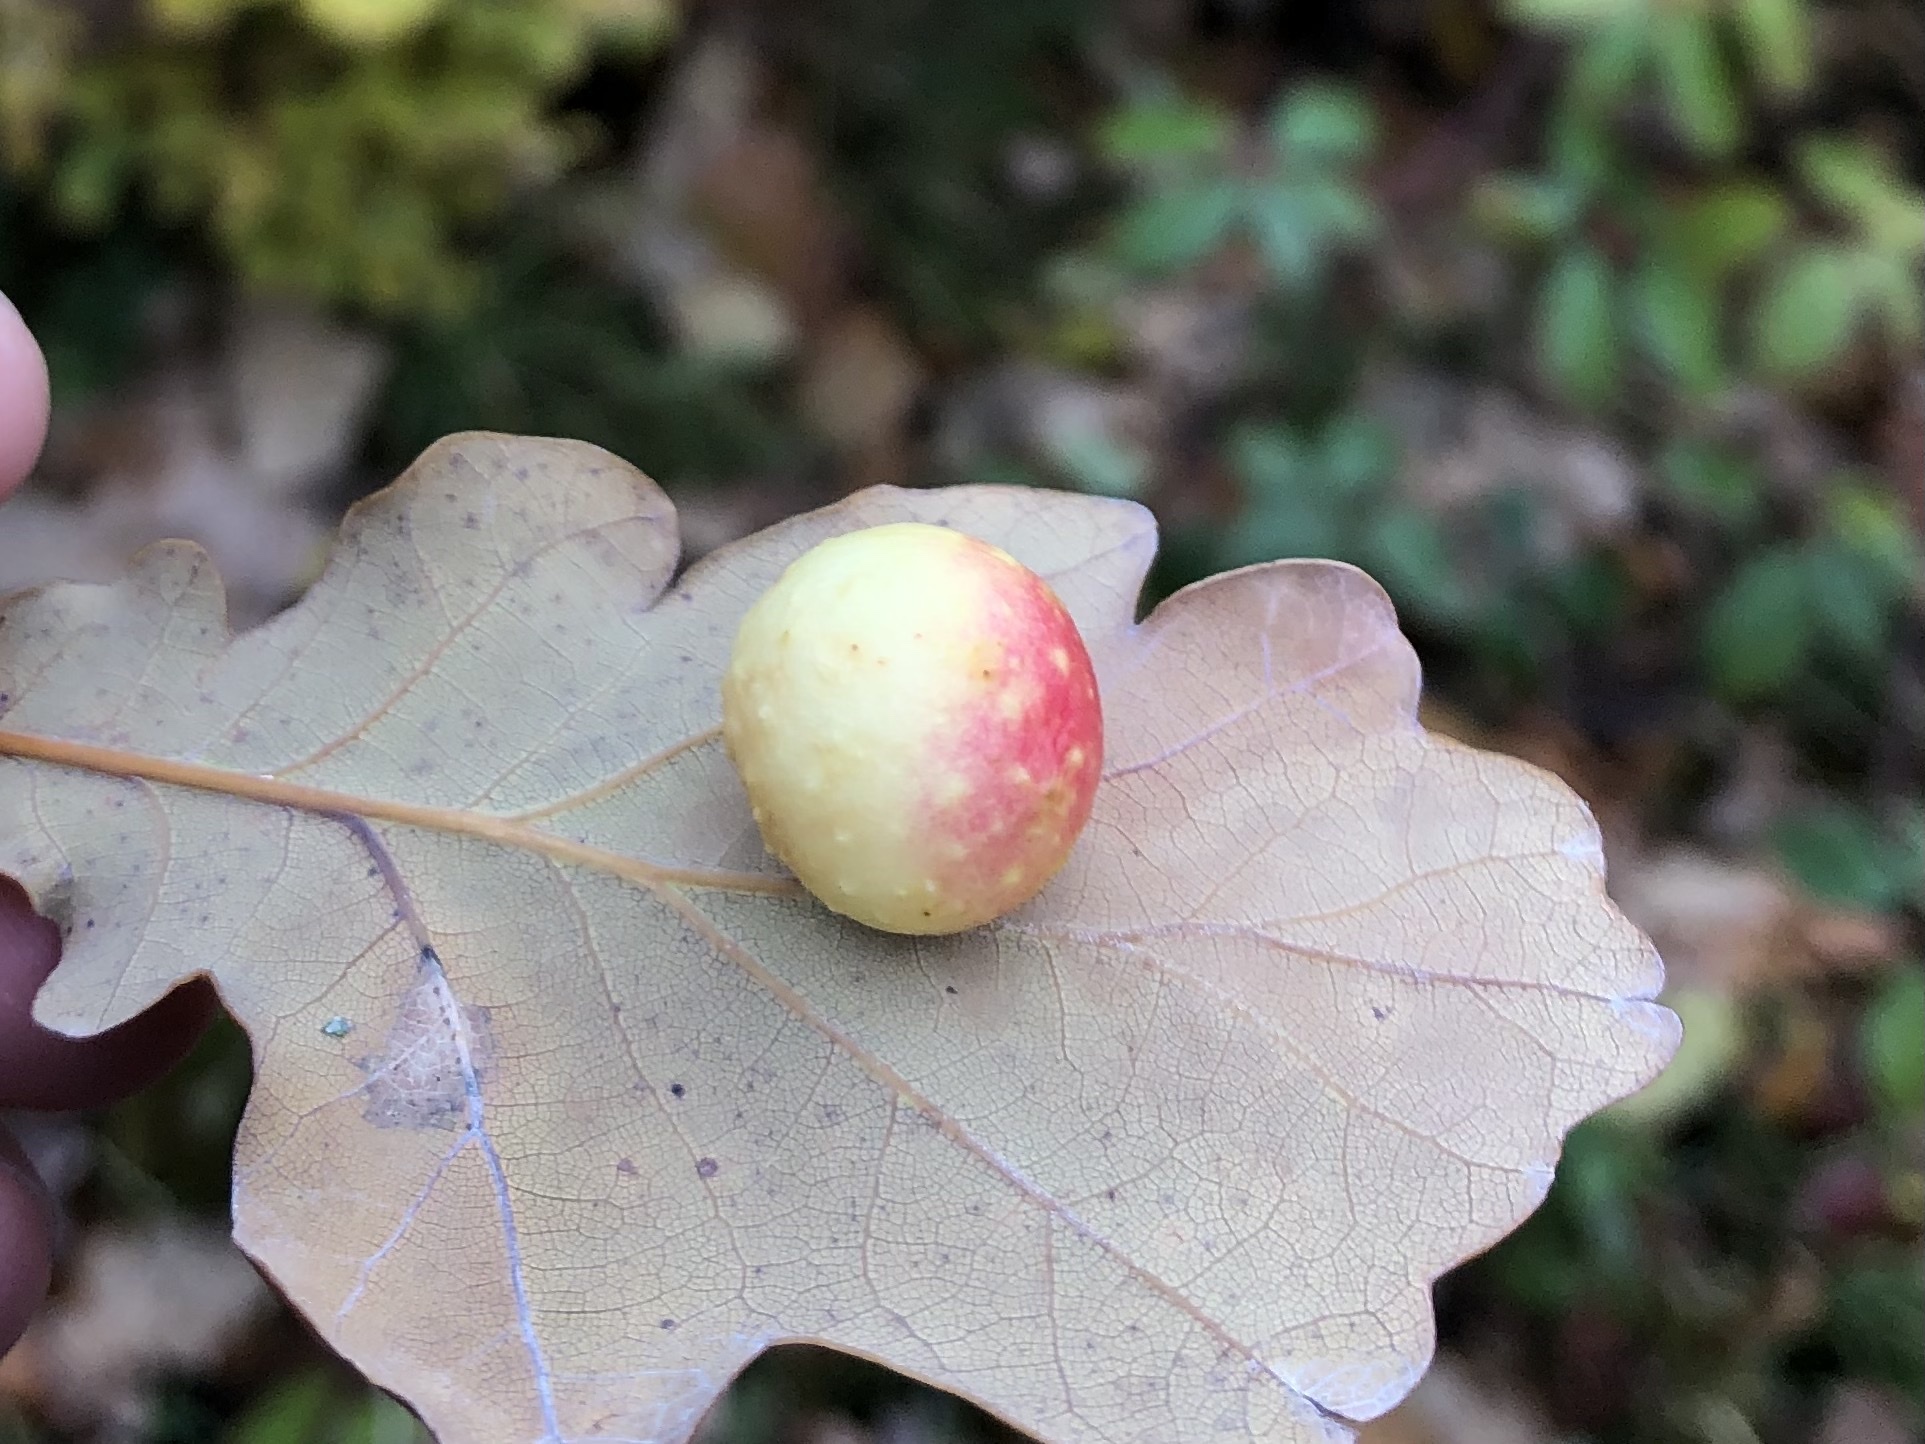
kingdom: Animalia
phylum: Arthropoda
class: Insecta
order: Hymenoptera
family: Cynipidae
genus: Cynips
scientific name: Cynips quercusfolii
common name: Cherry gall
